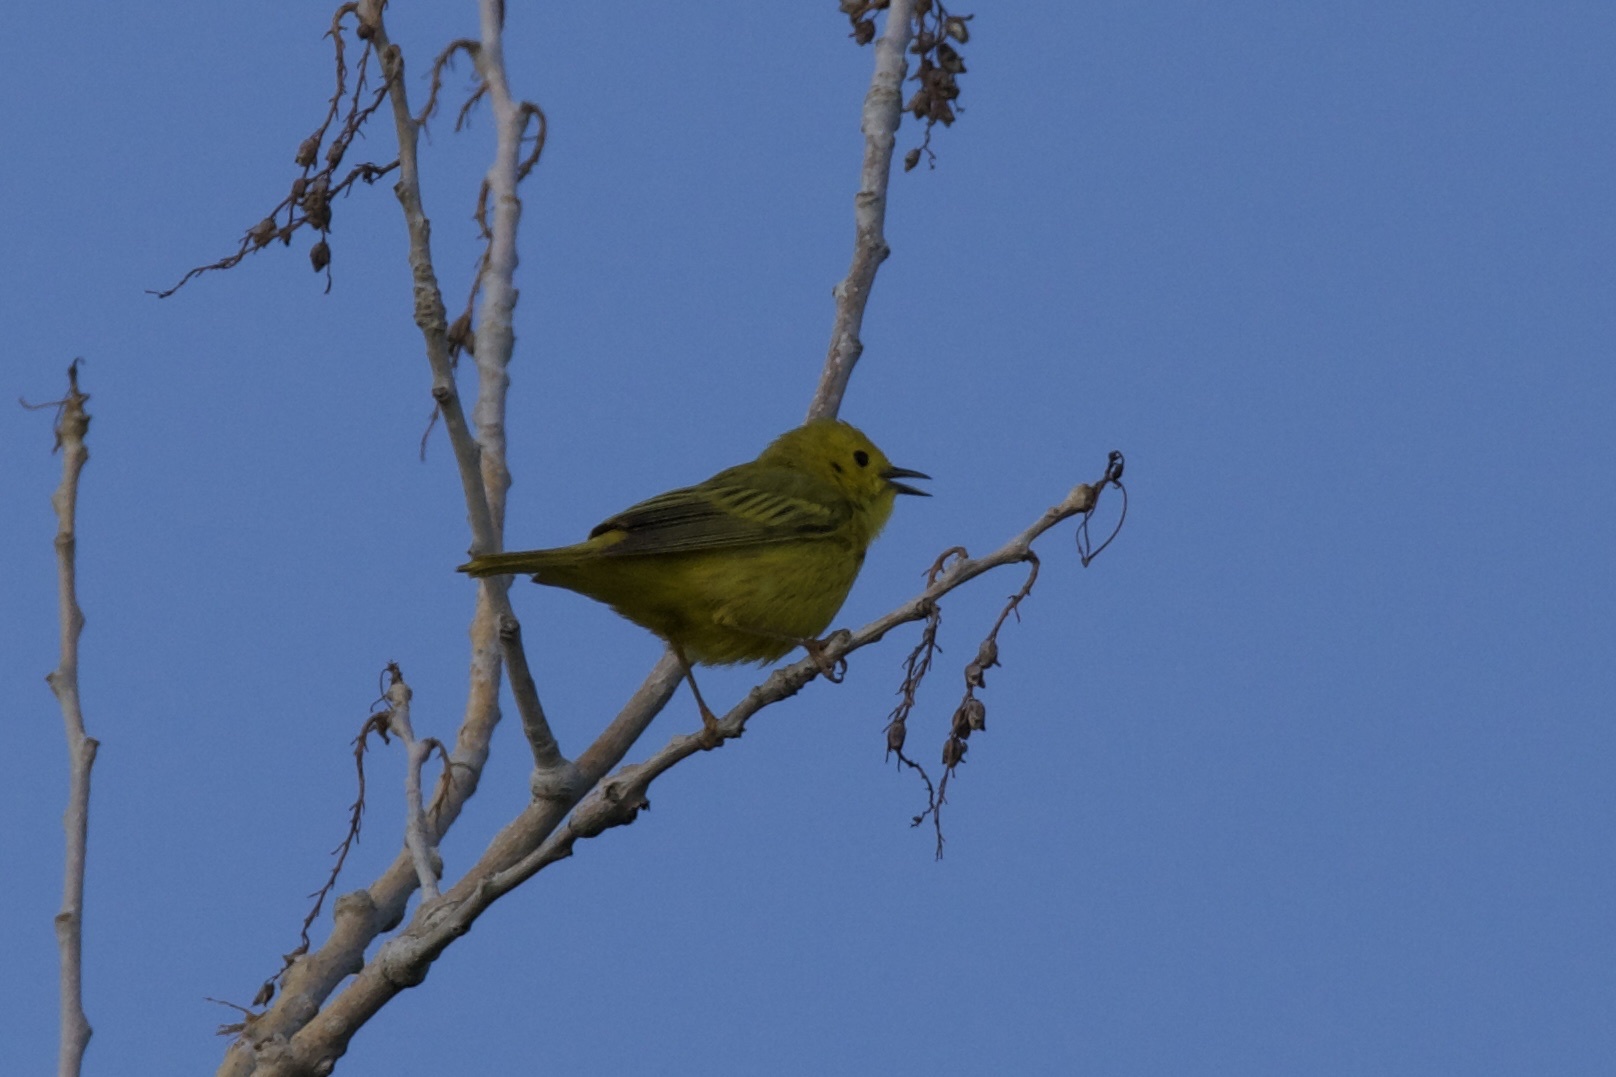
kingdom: Animalia
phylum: Chordata
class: Aves
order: Passeriformes
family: Parulidae
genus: Setophaga
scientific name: Setophaga petechia
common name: Yellow warbler
